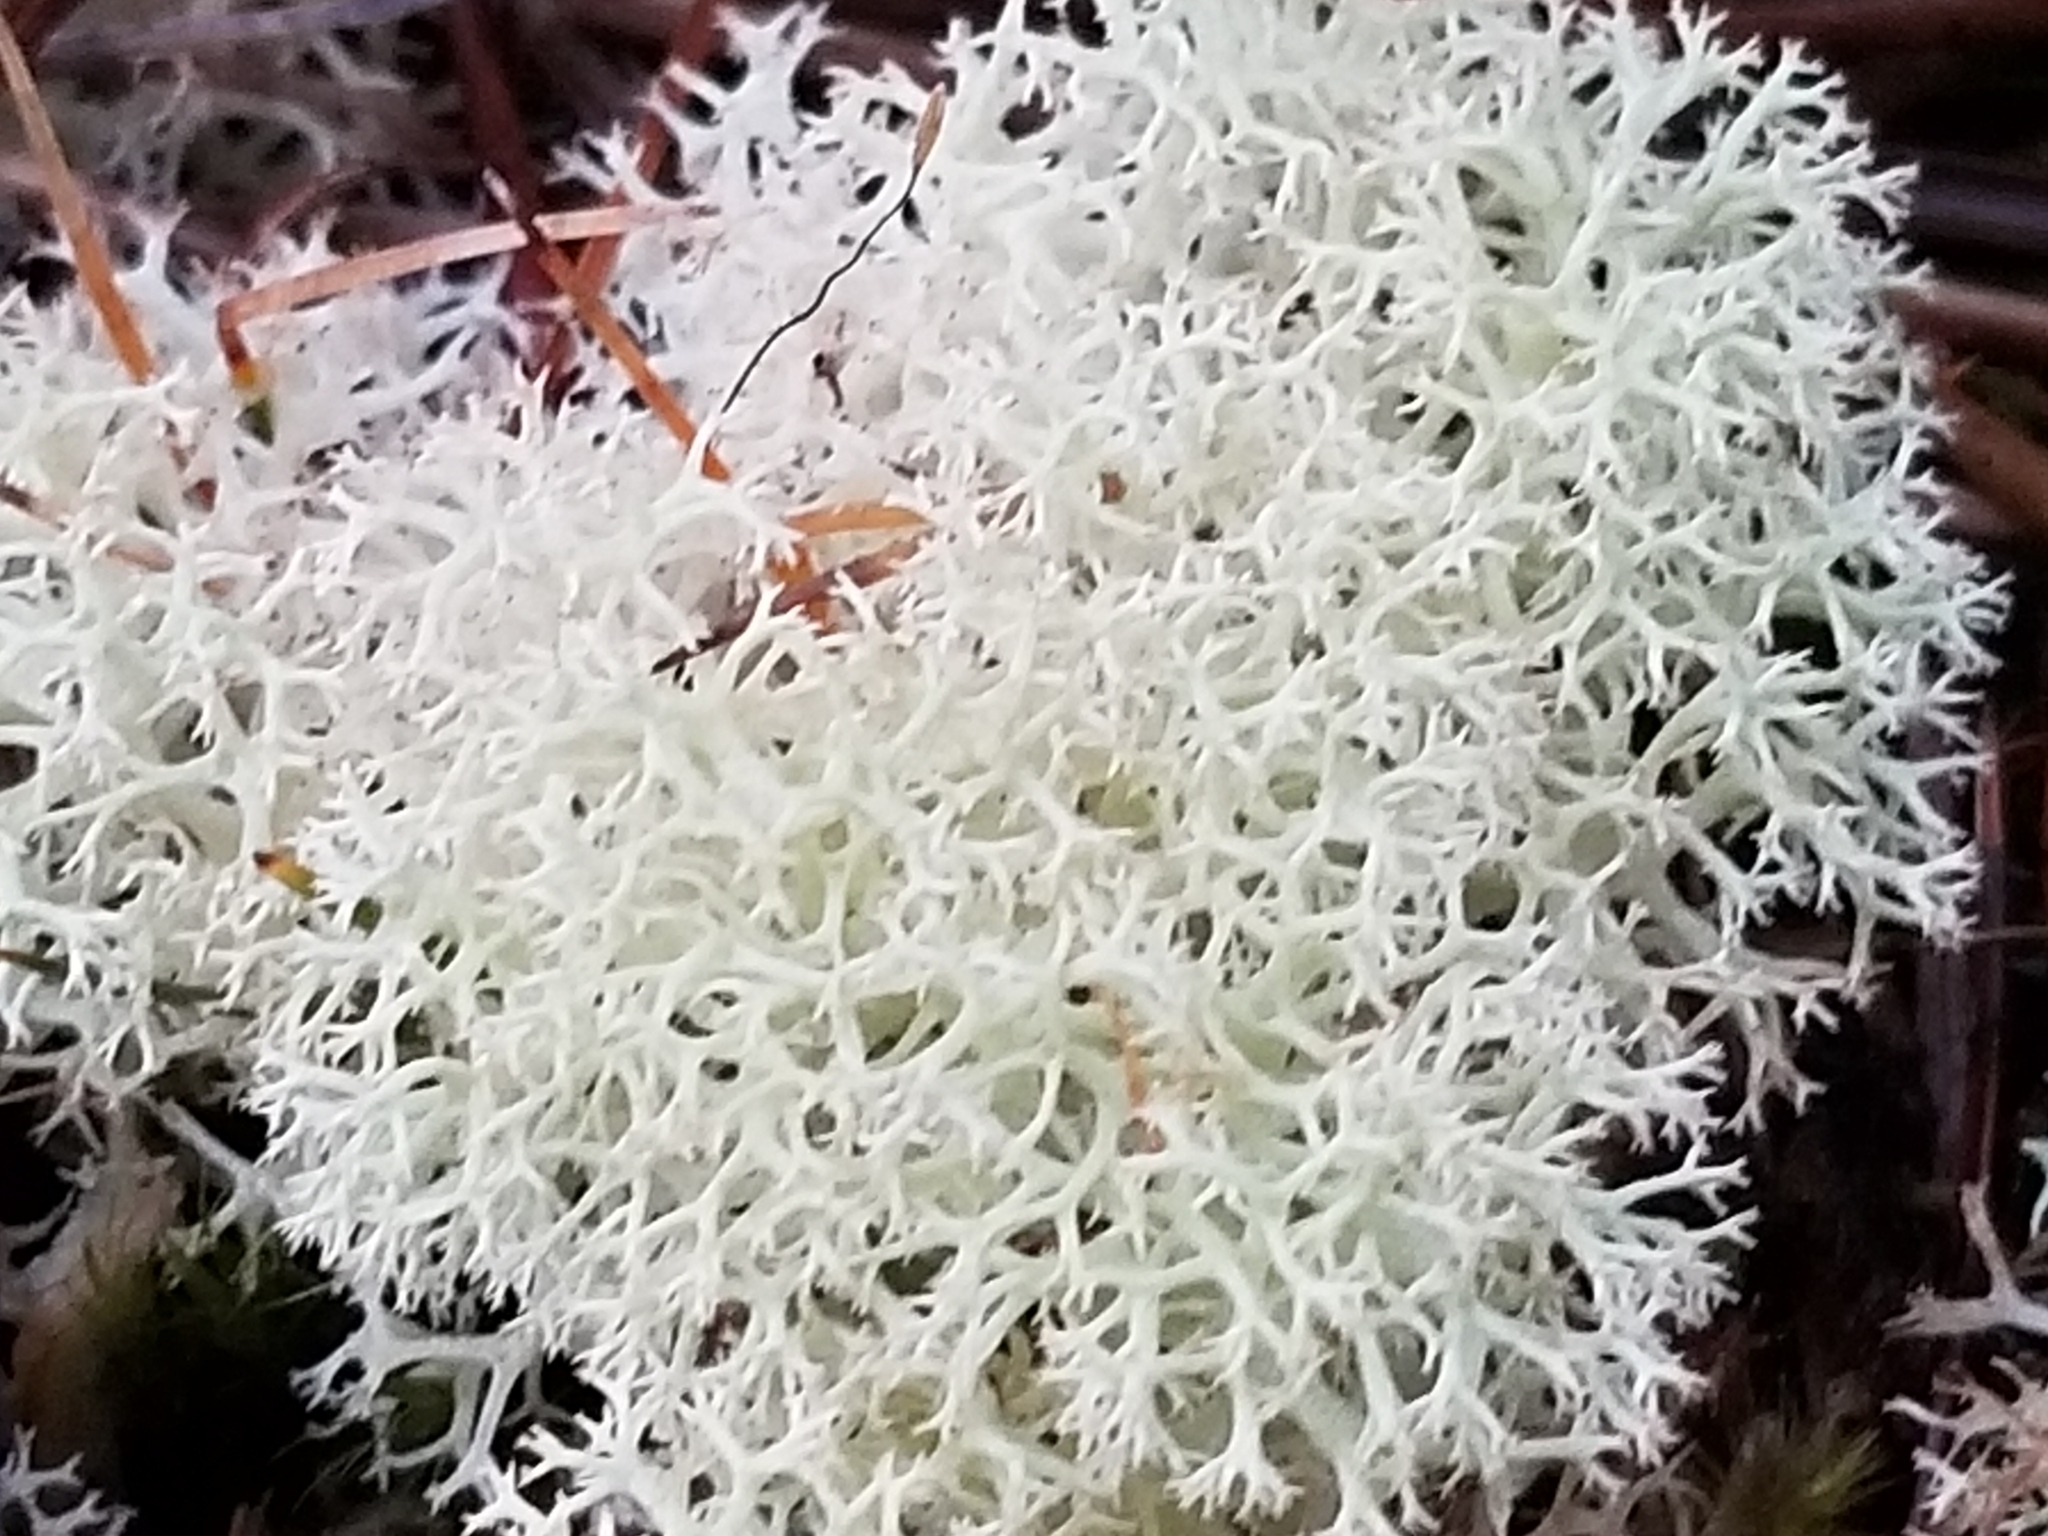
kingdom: Fungi
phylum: Ascomycota
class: Lecanoromycetes
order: Lecanorales
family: Cladoniaceae
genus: Pulchrocladia
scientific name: Pulchrocladia retipora
